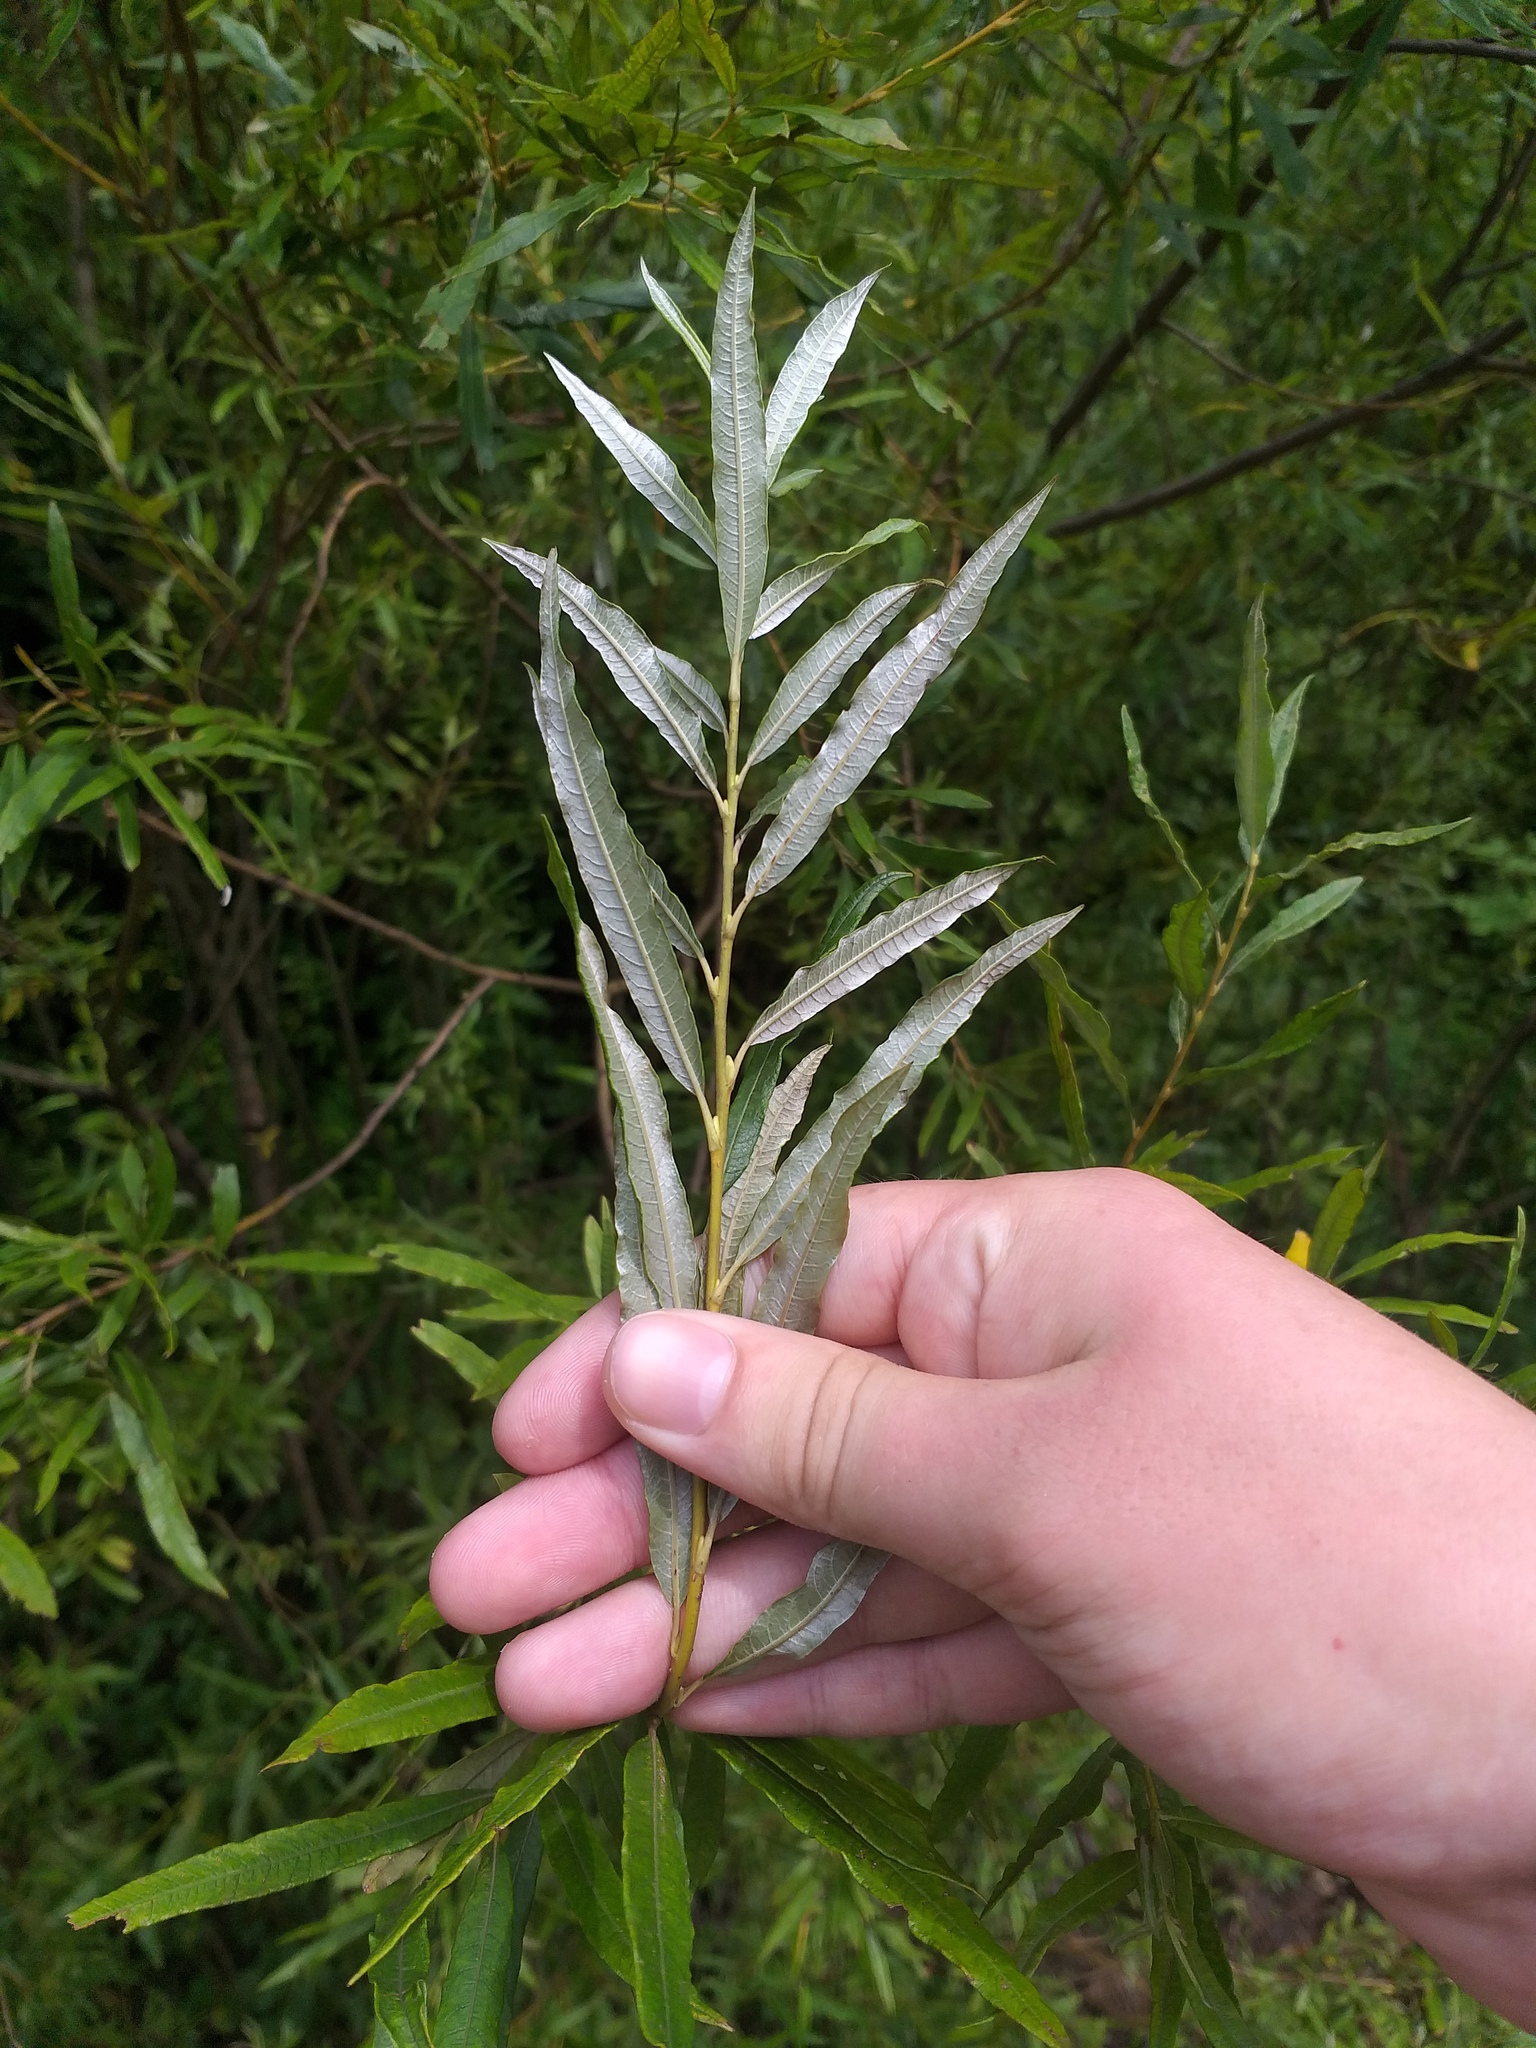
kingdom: Plantae
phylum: Tracheophyta
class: Magnoliopsida
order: Malpighiales
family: Salicaceae
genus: Salix
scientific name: Salix viminalis
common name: Osier
